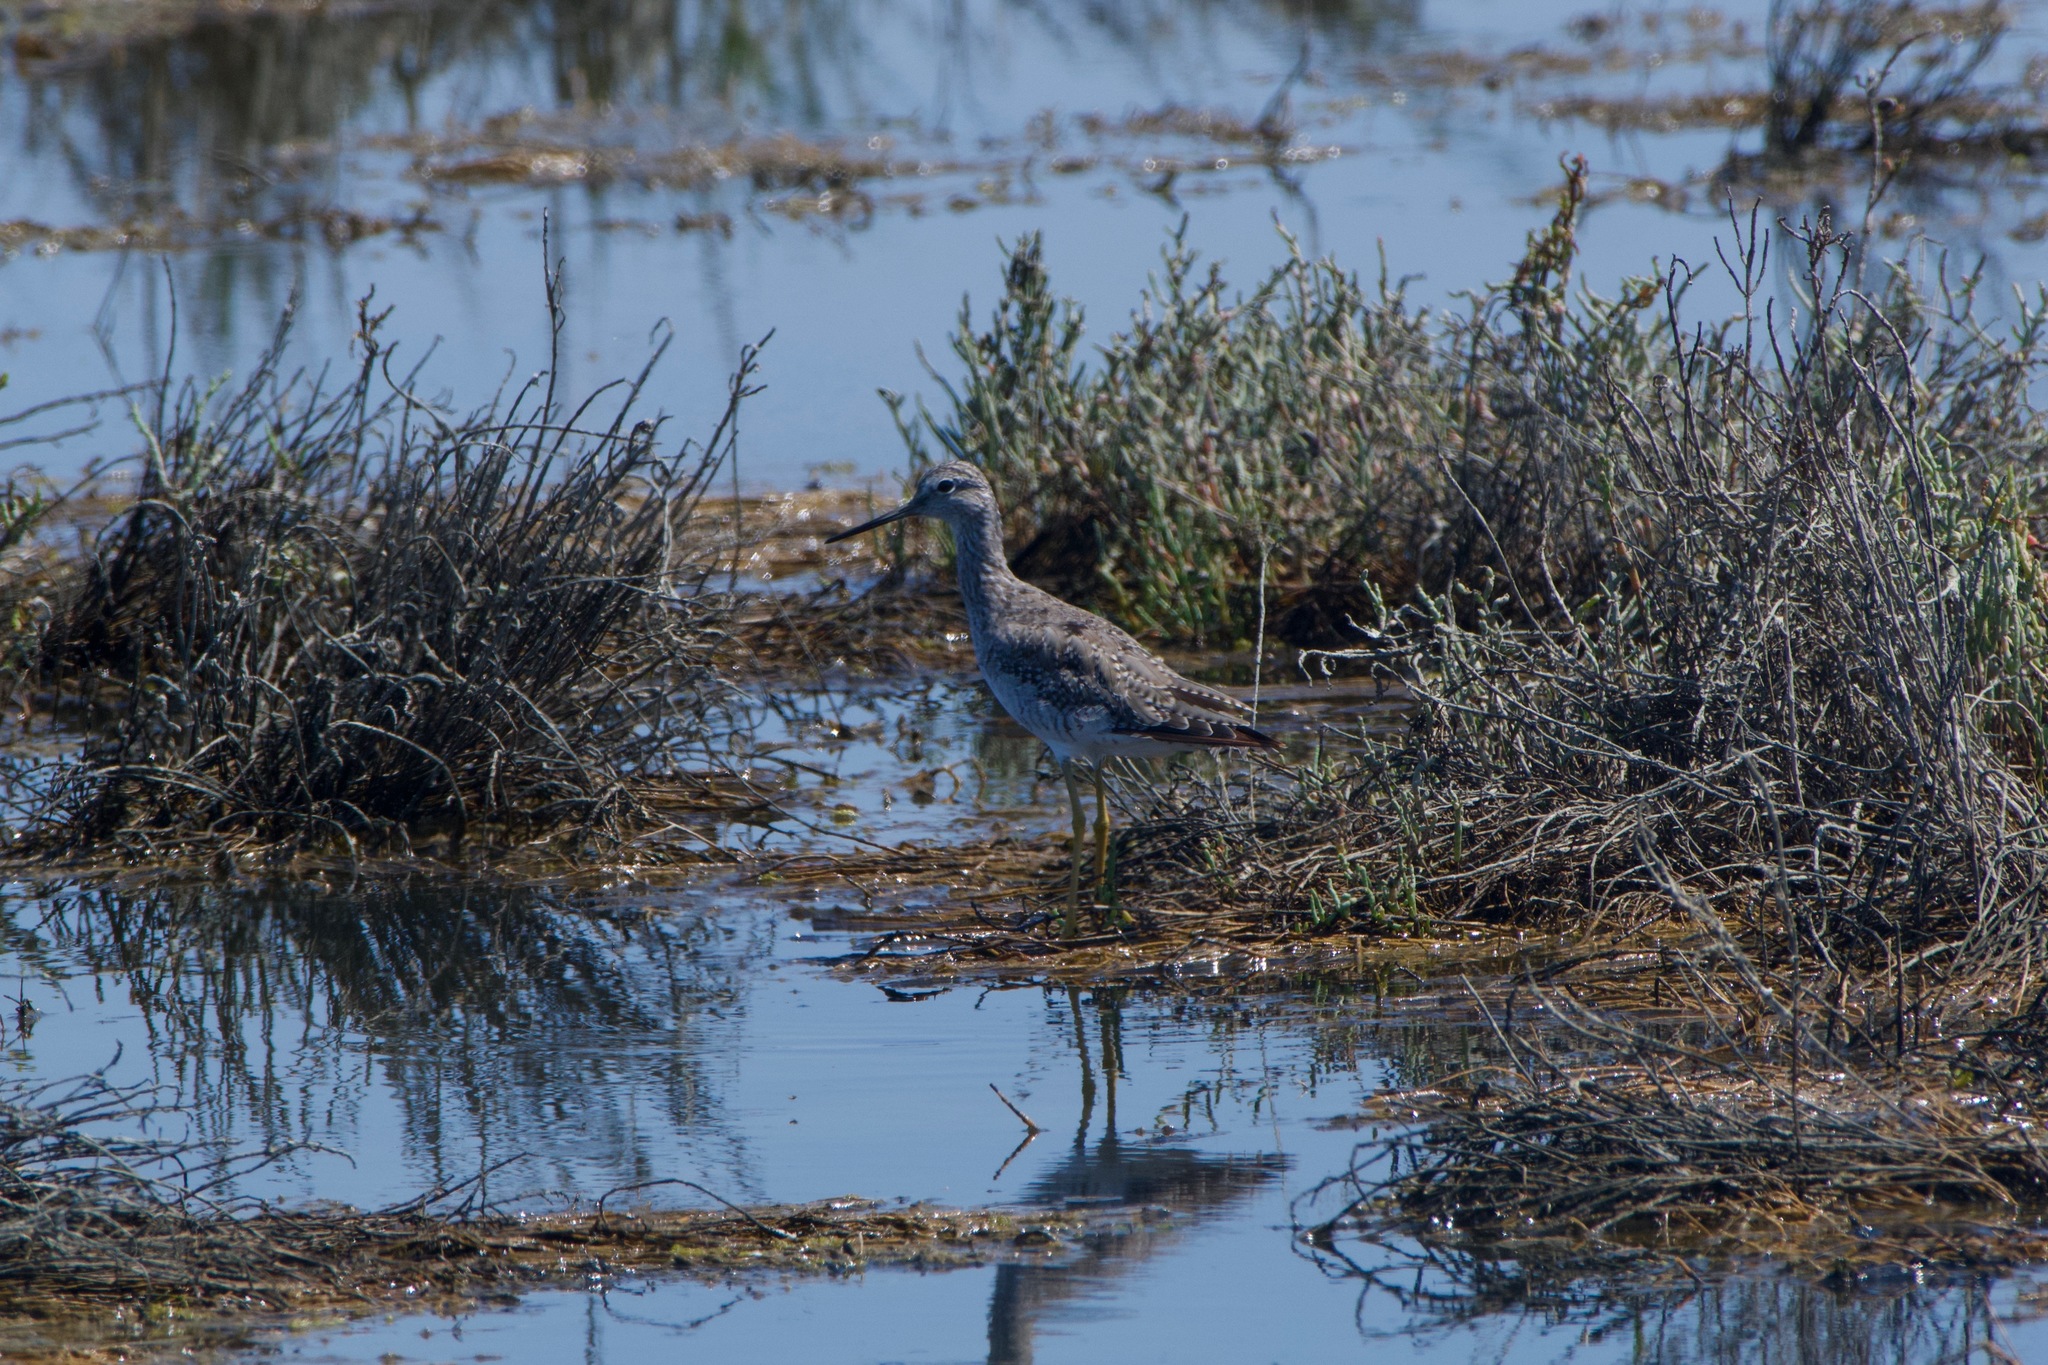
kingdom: Animalia
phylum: Chordata
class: Aves
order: Charadriiformes
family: Scolopacidae
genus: Tringa
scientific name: Tringa melanoleuca
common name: Greater yellowlegs
